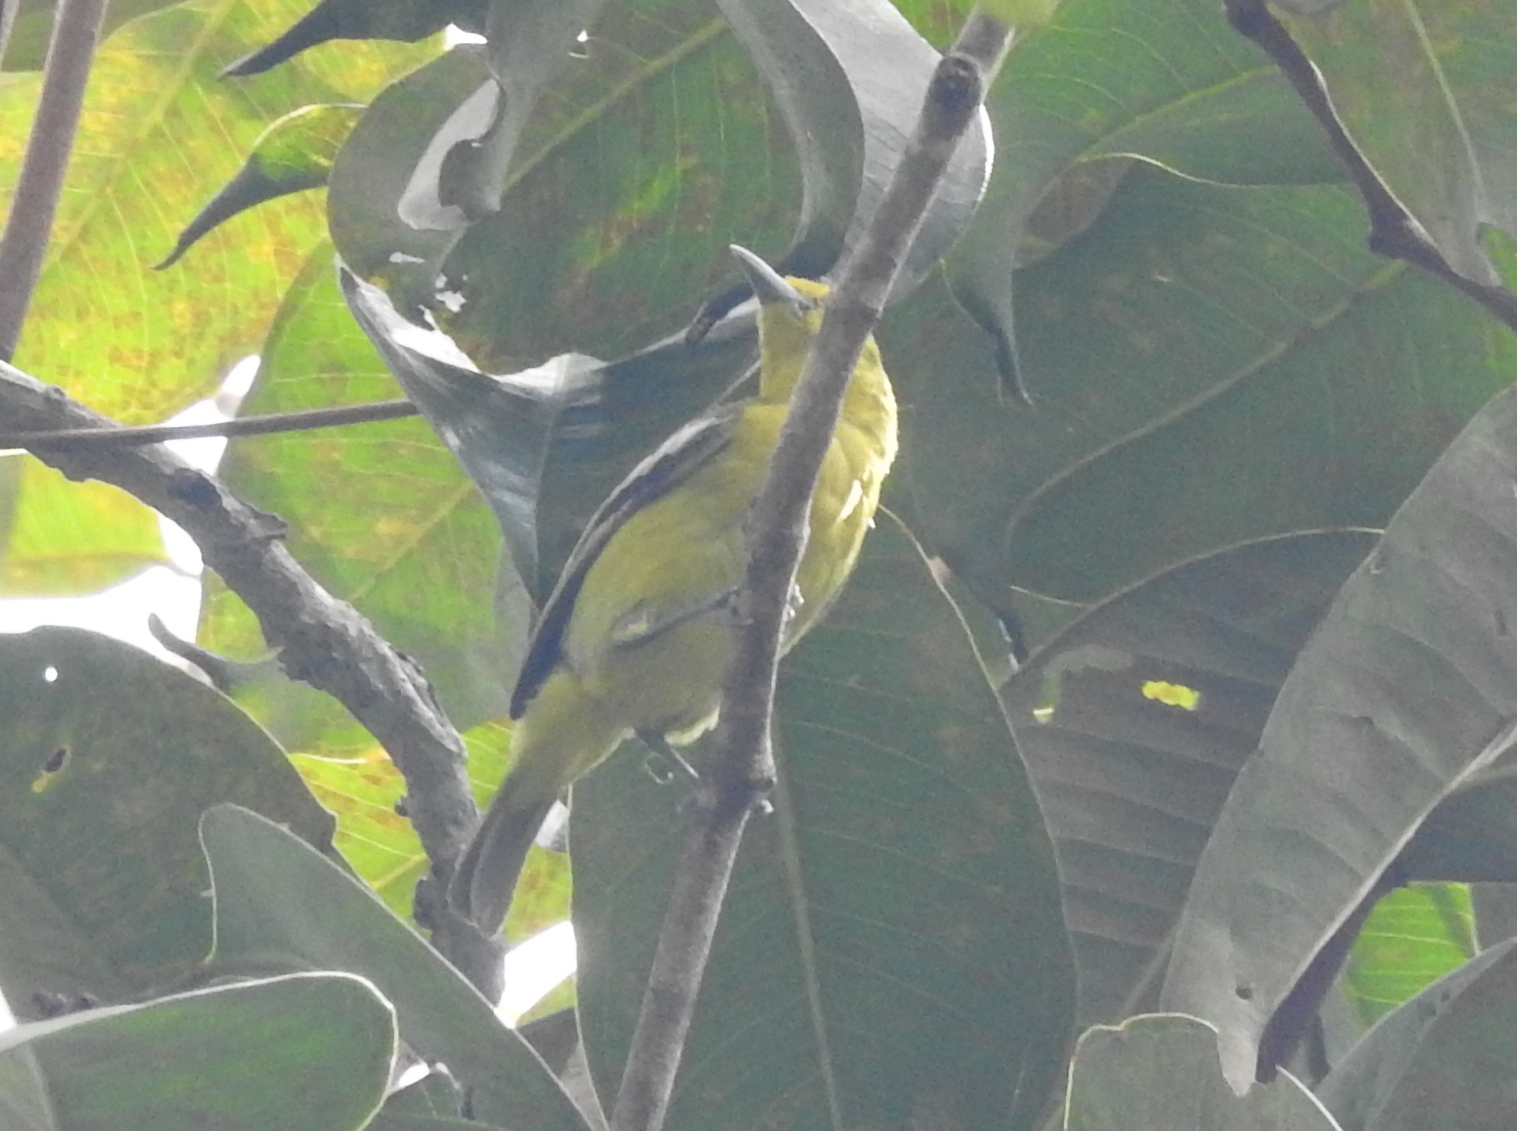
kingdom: Animalia
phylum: Chordata
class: Aves
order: Passeriformes
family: Aegithinidae
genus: Aegithina
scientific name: Aegithina tiphia
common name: Common iora
